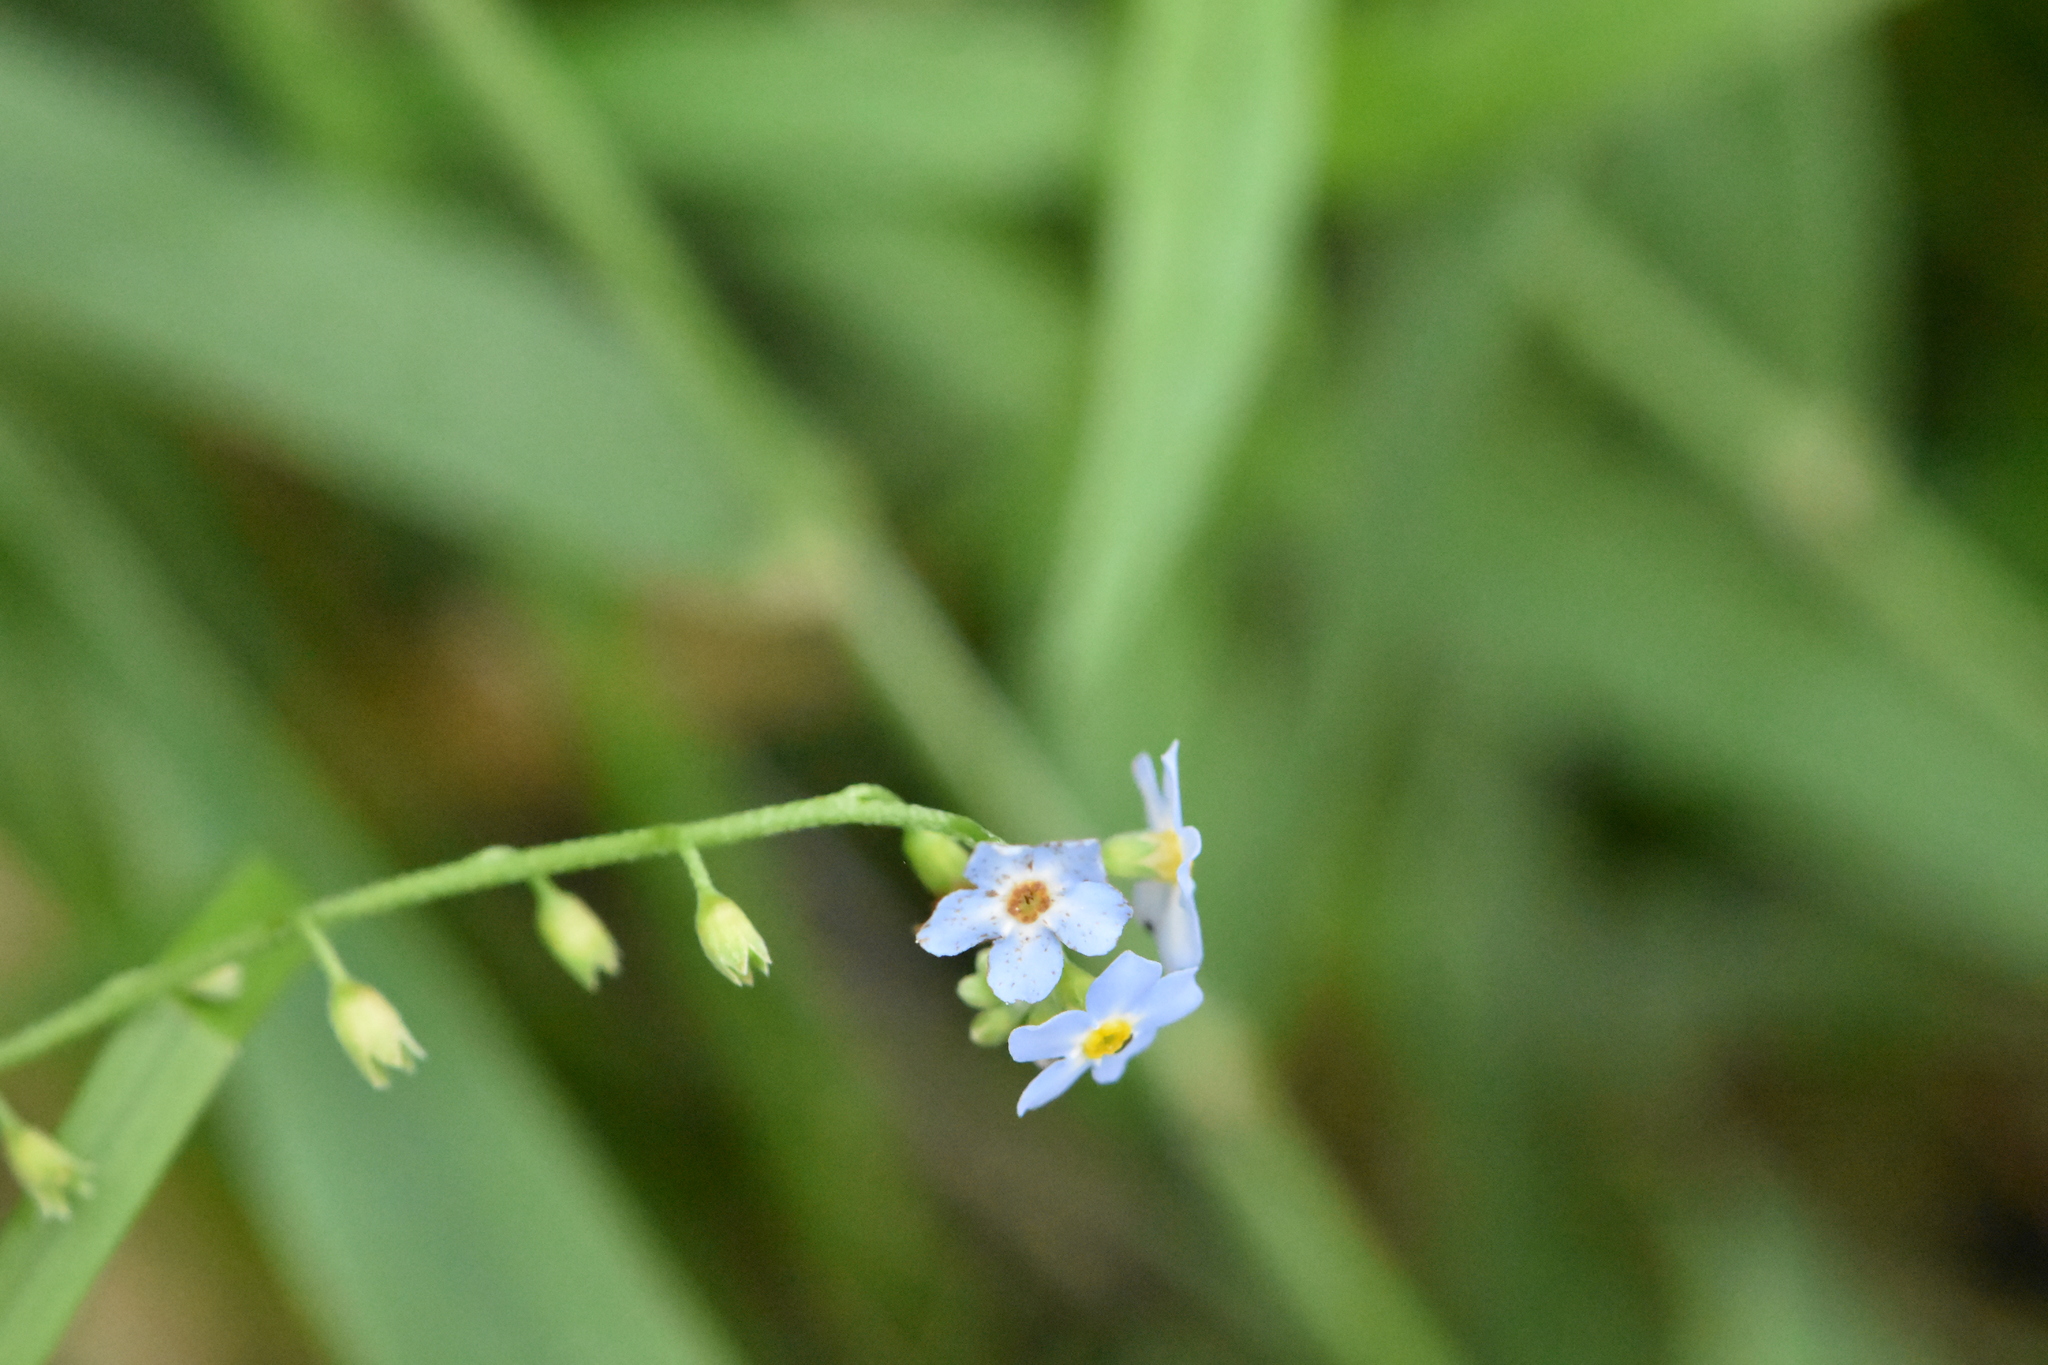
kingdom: Plantae
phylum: Tracheophyta
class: Magnoliopsida
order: Boraginales
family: Boraginaceae
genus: Myosotis
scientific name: Myosotis scorpioides
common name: Water forget-me-not
